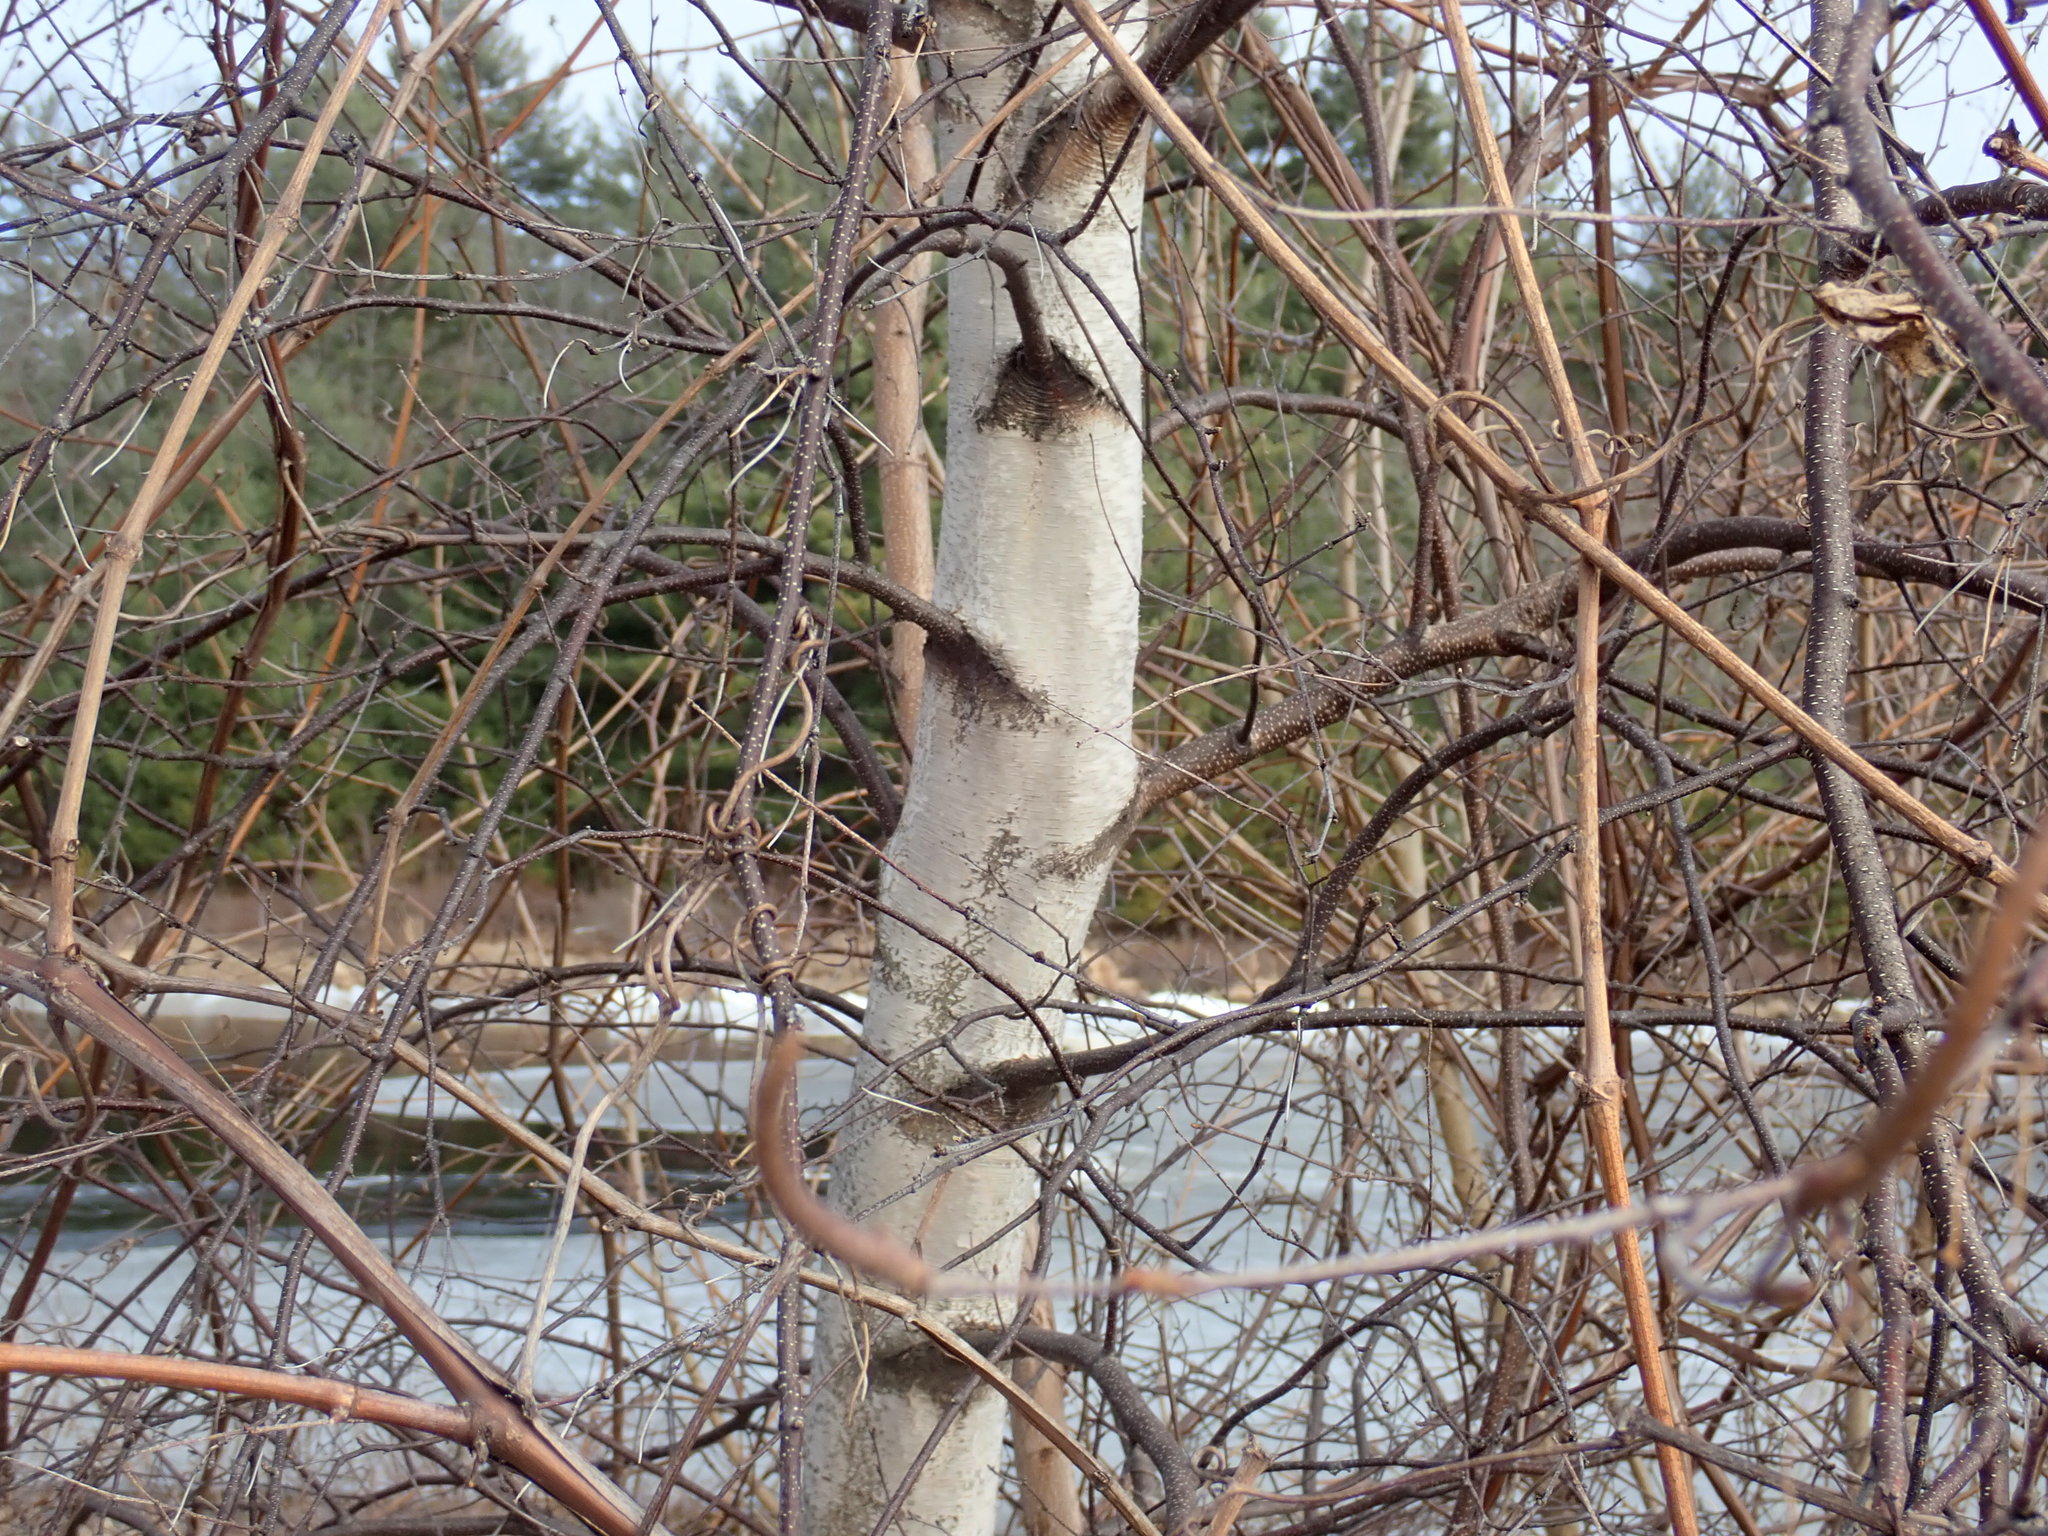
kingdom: Plantae
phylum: Tracheophyta
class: Magnoliopsida
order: Fagales
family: Betulaceae
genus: Betula
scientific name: Betula populifolia
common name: Fire birch
